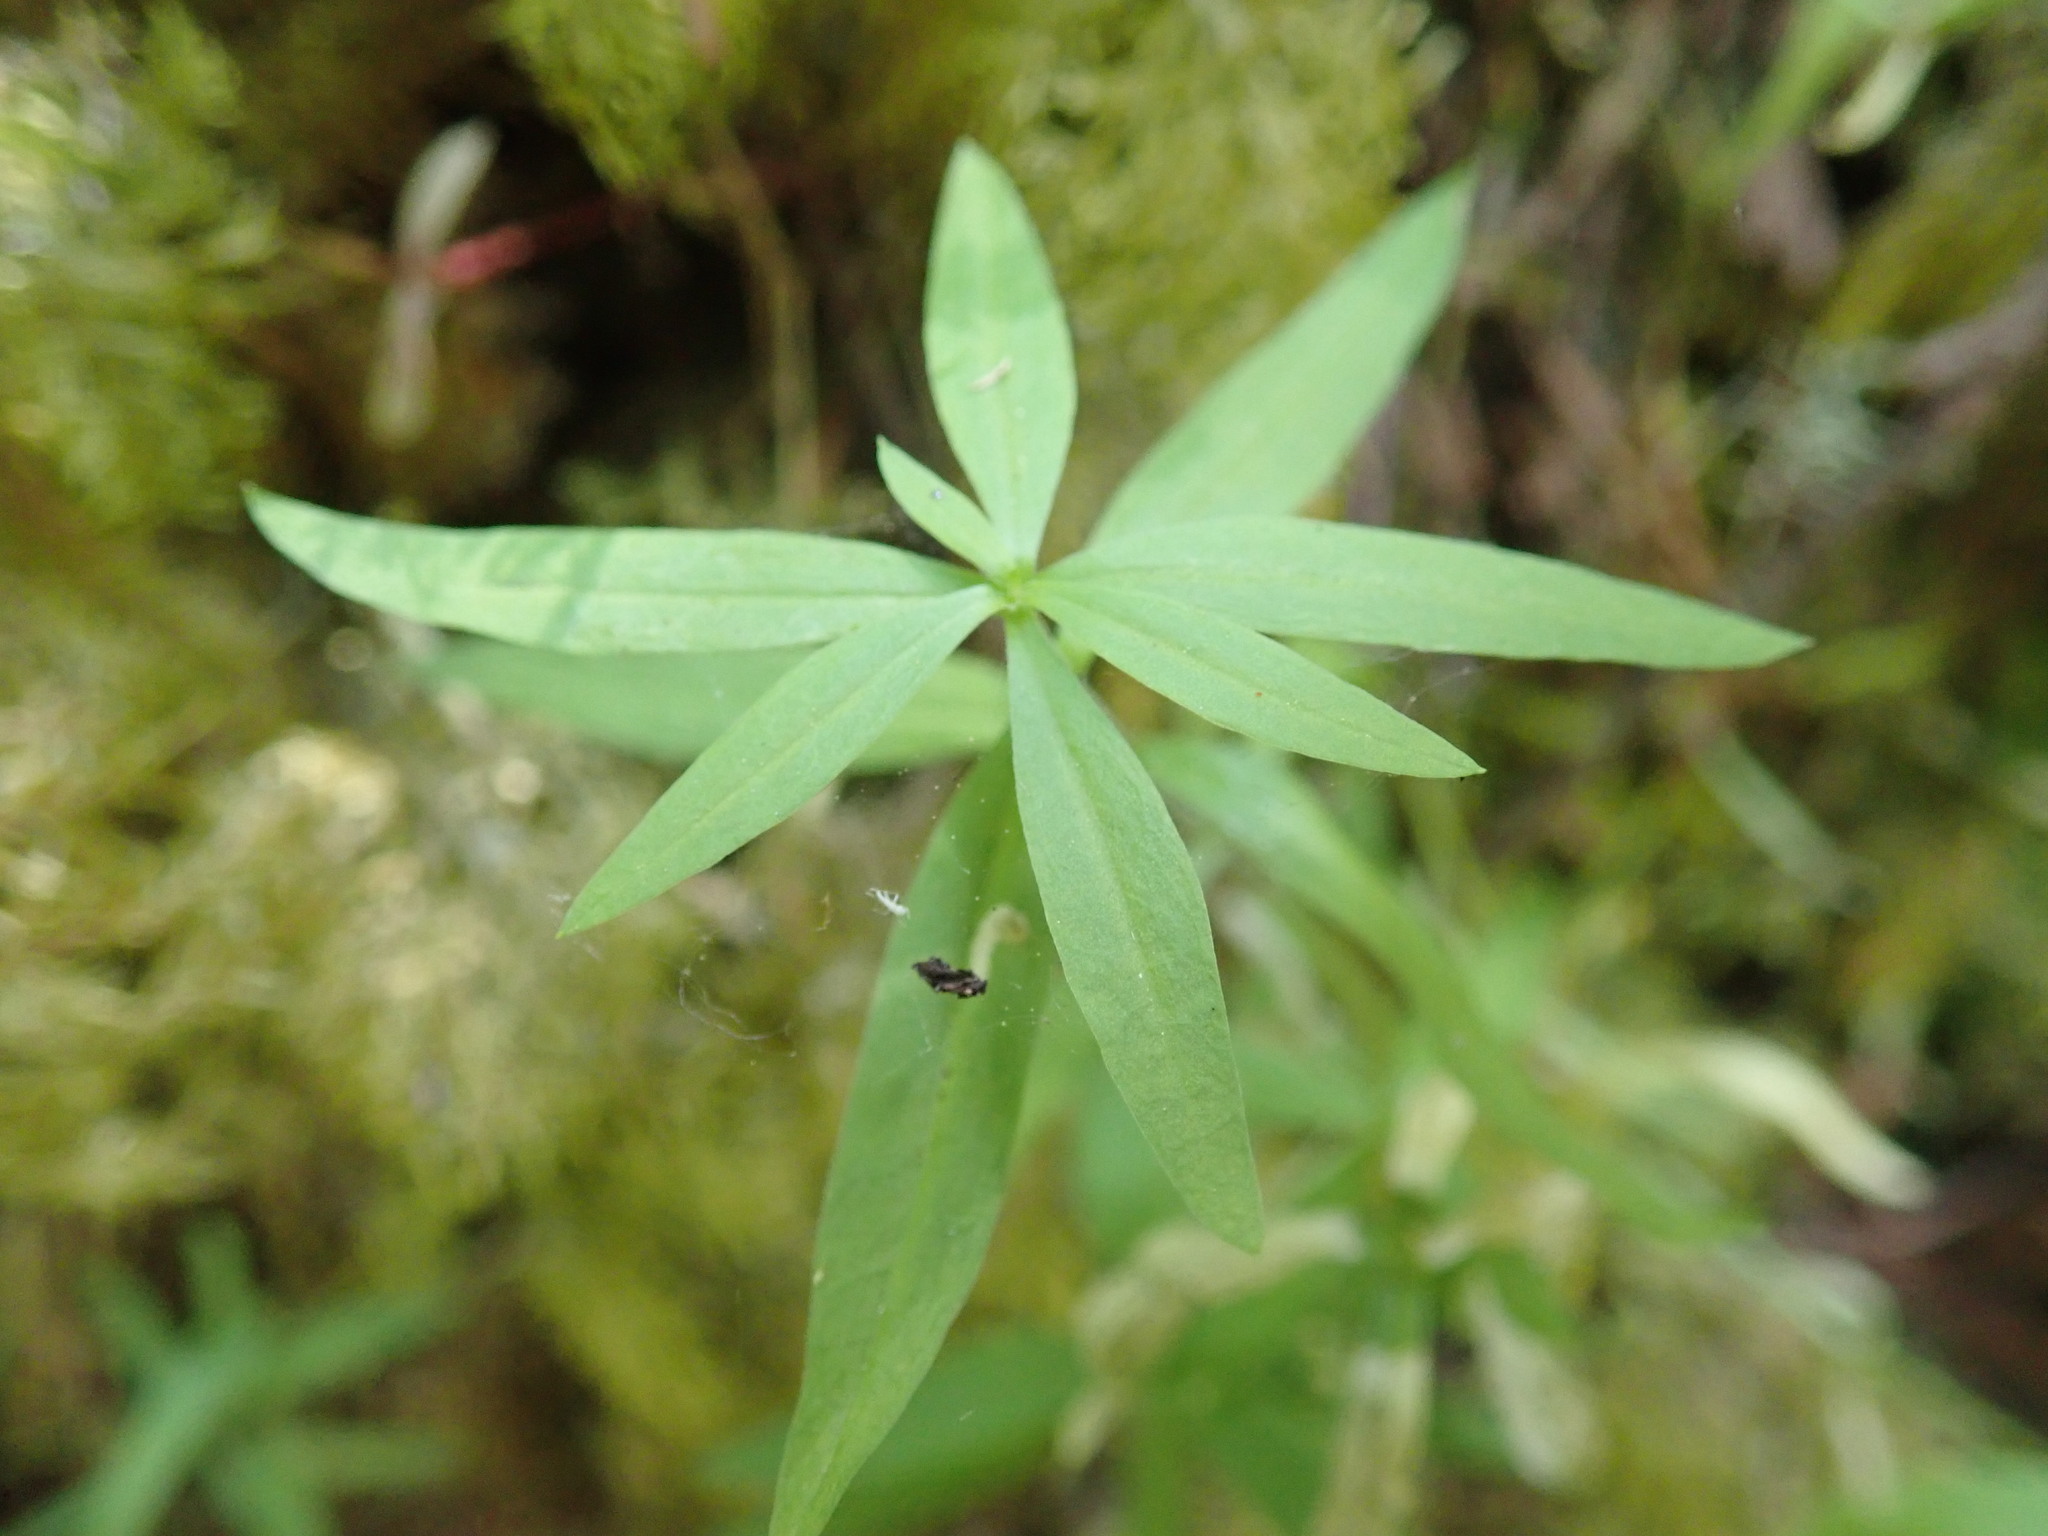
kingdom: Plantae
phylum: Tracheophyta
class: Magnoliopsida
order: Caryophyllales
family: Caryophyllaceae
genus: Moehringia
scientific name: Moehringia macrophylla
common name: Big-leaf sandwort
